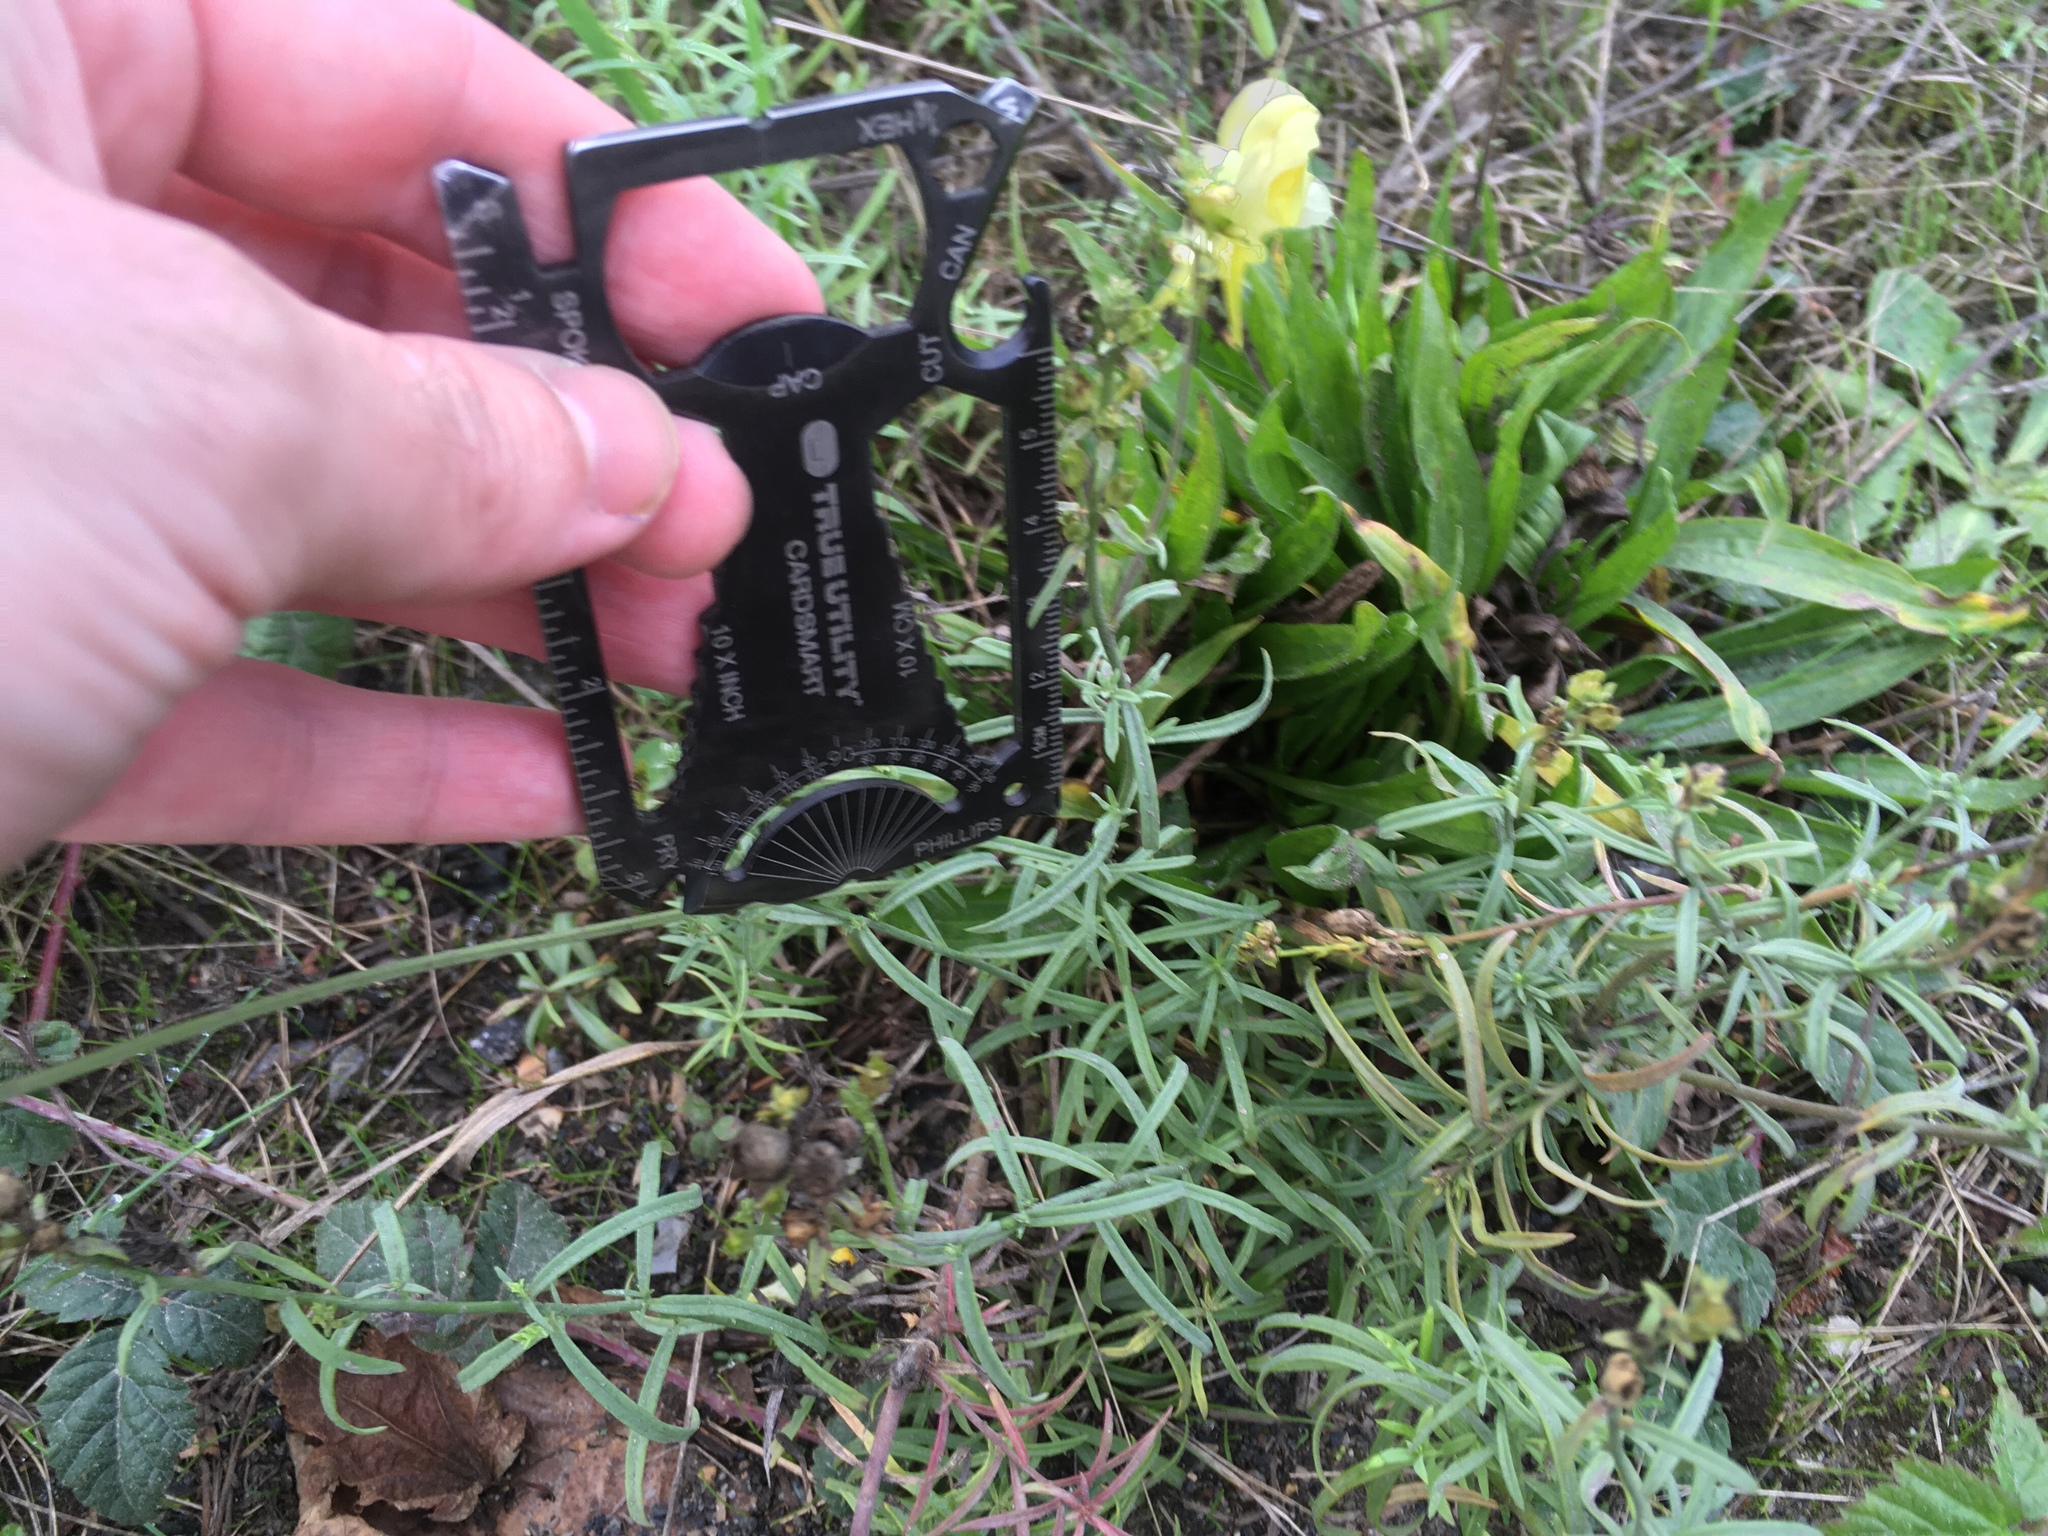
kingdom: Plantae
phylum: Tracheophyta
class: Magnoliopsida
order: Lamiales
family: Plantaginaceae
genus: Linaria
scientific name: Linaria vulgaris
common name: Butter and eggs
